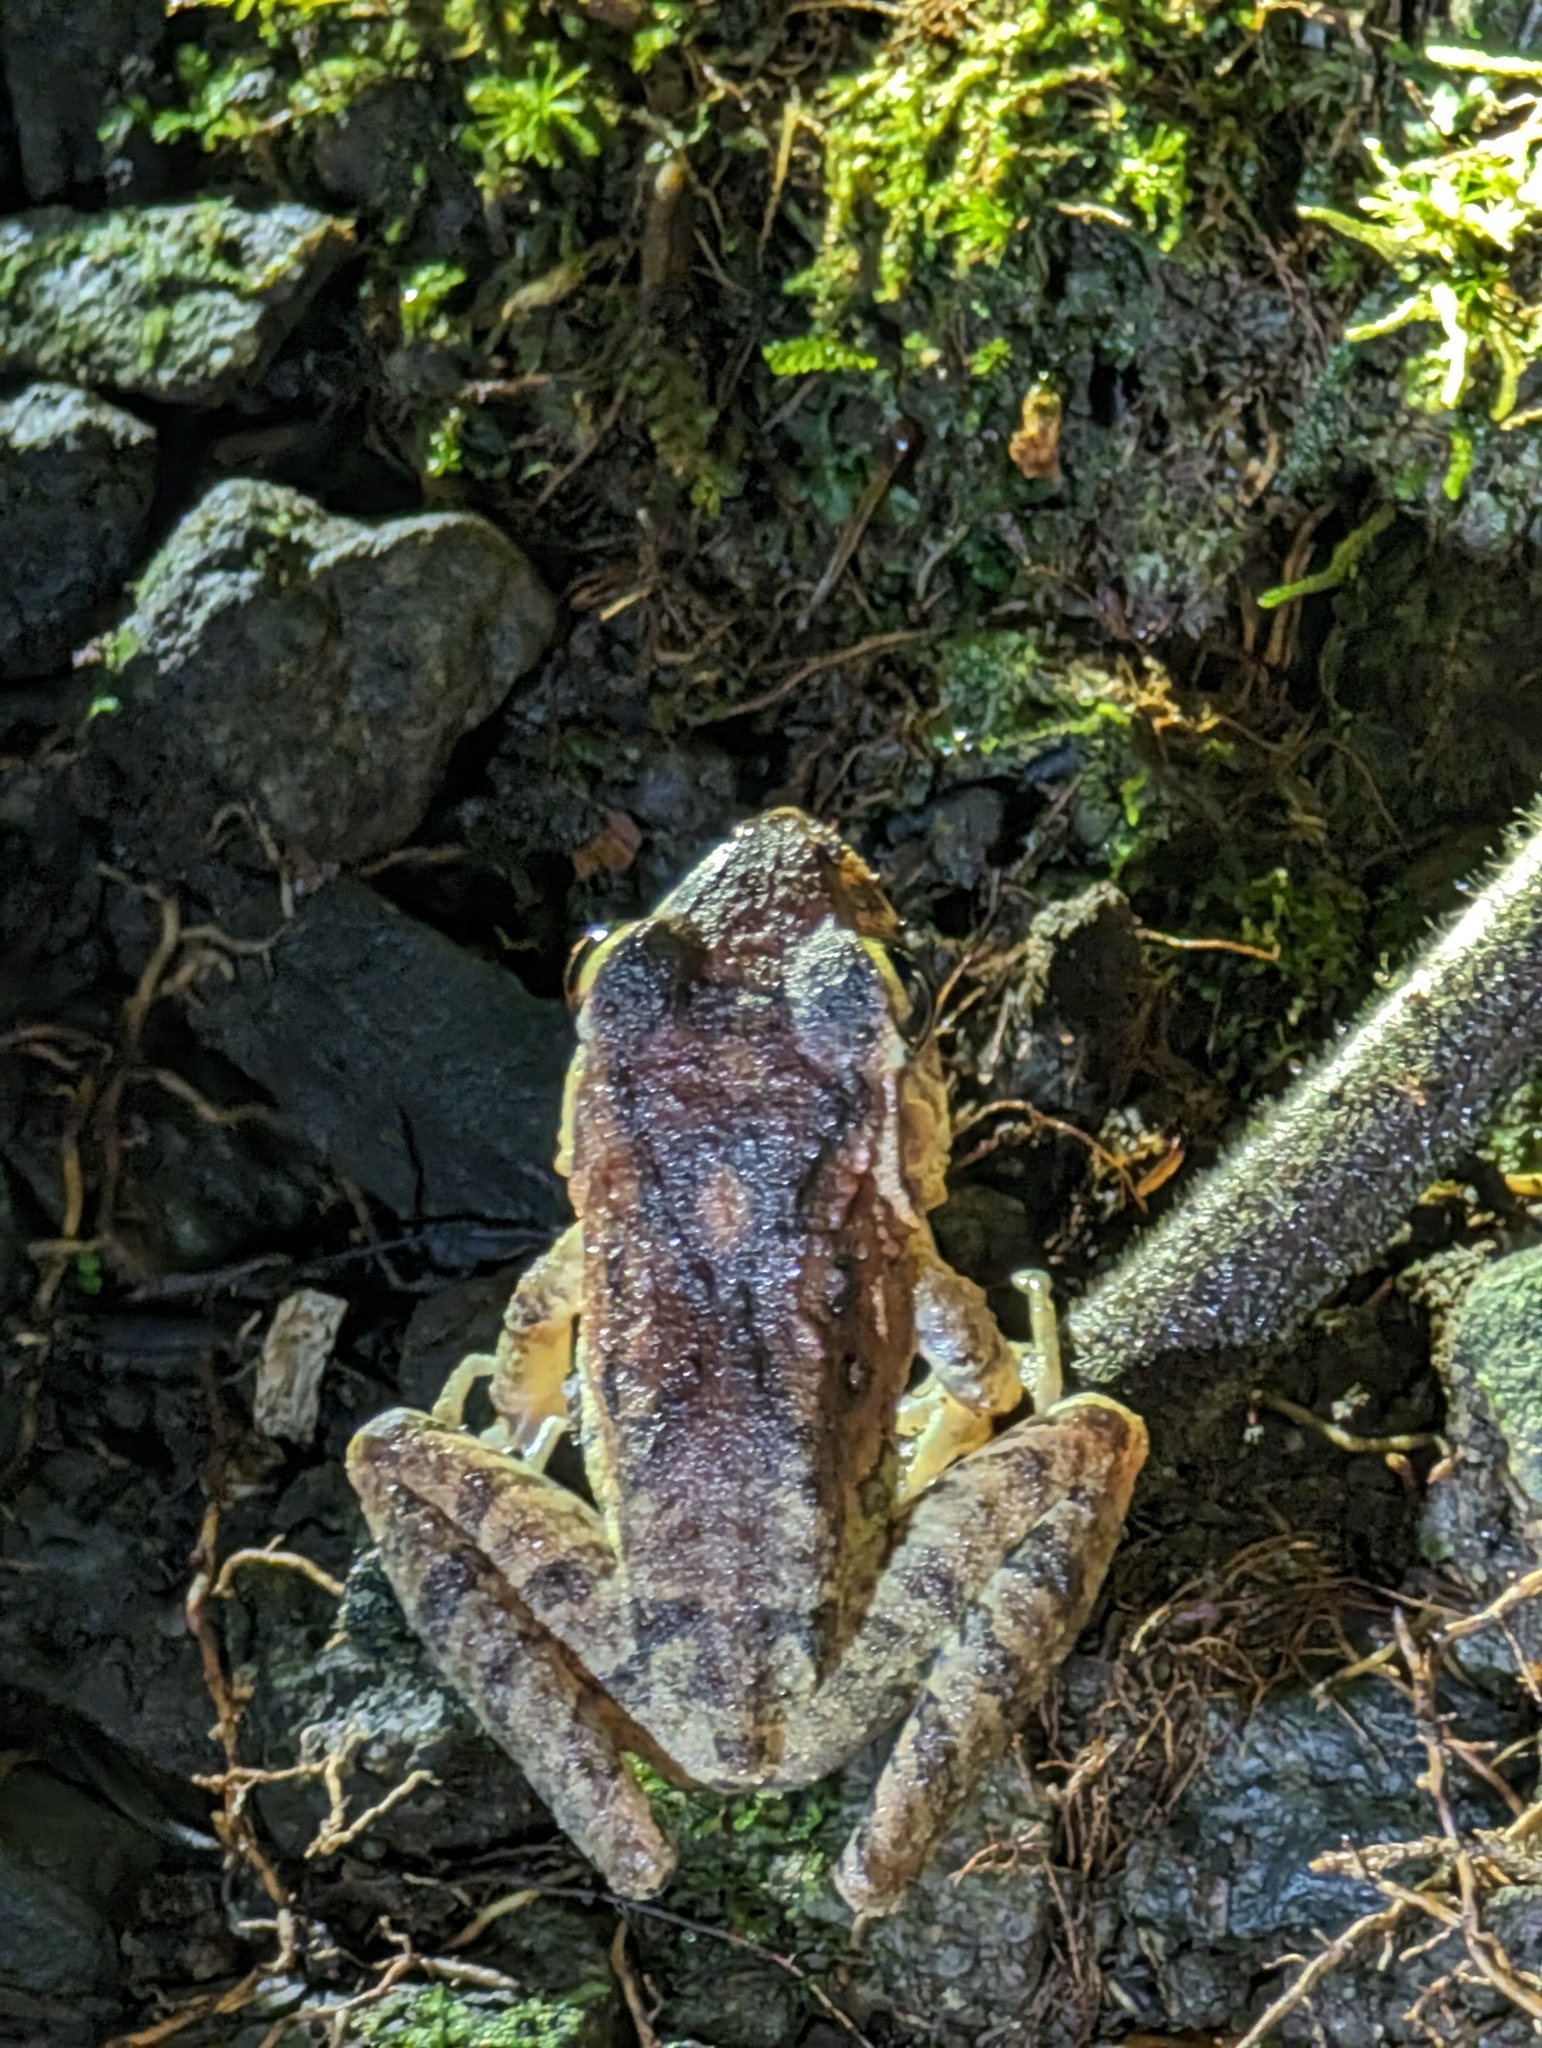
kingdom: Animalia
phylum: Chordata
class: Amphibia
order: Anura
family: Craugastoridae
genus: Craugastor
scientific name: Craugastor fitzingeri
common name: Fitzinger's robber frog
